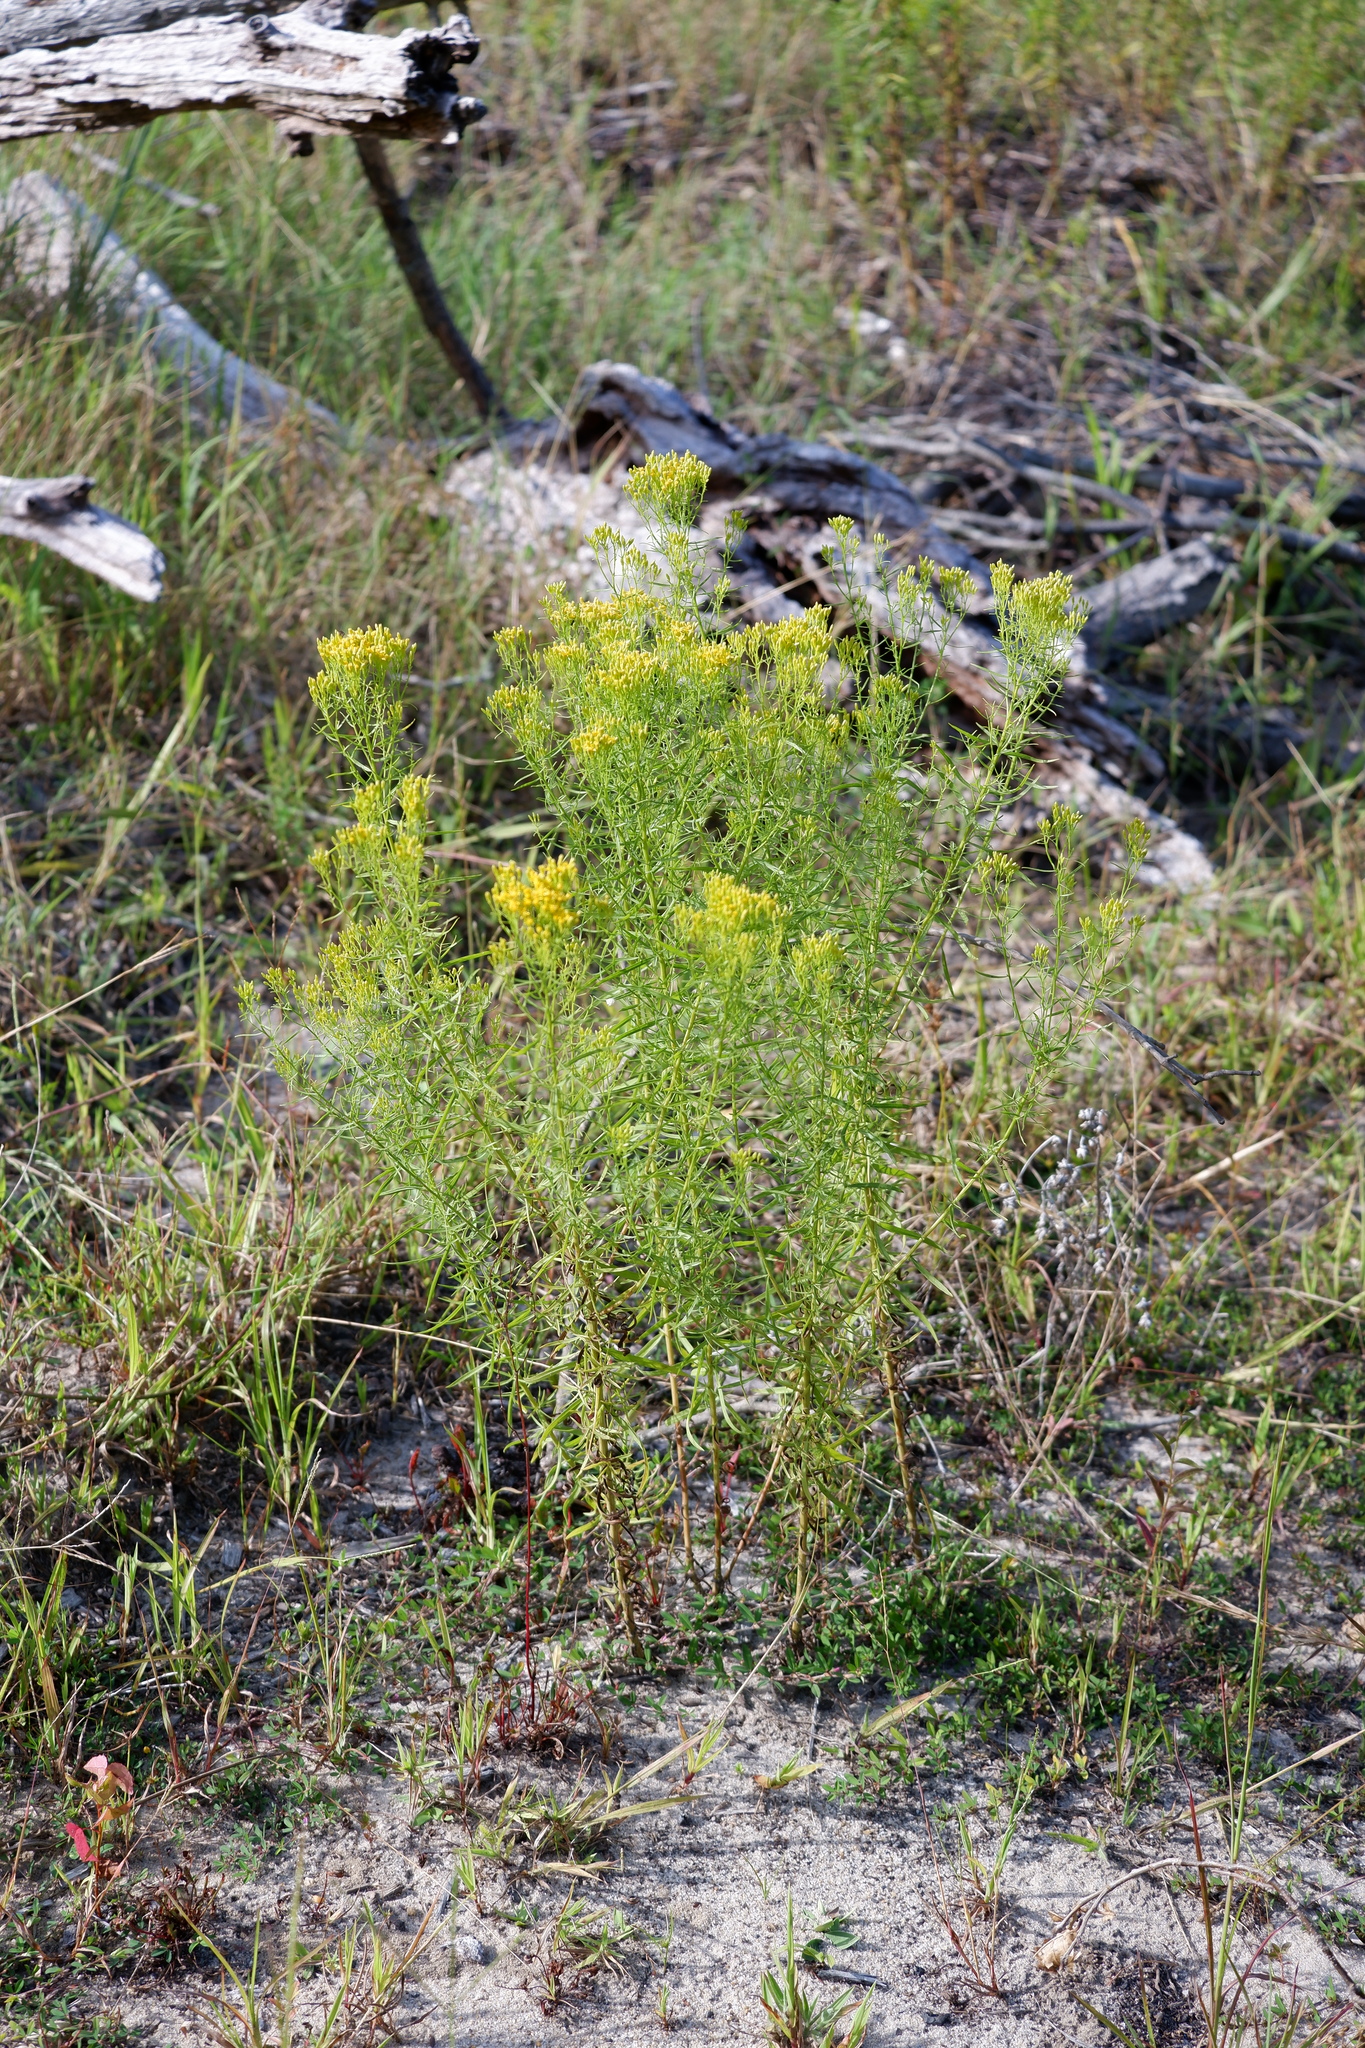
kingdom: Plantae
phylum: Tracheophyta
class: Magnoliopsida
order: Asterales
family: Asteraceae
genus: Euthamia
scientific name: Euthamia caroliniana
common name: Coastal plain goldentop
